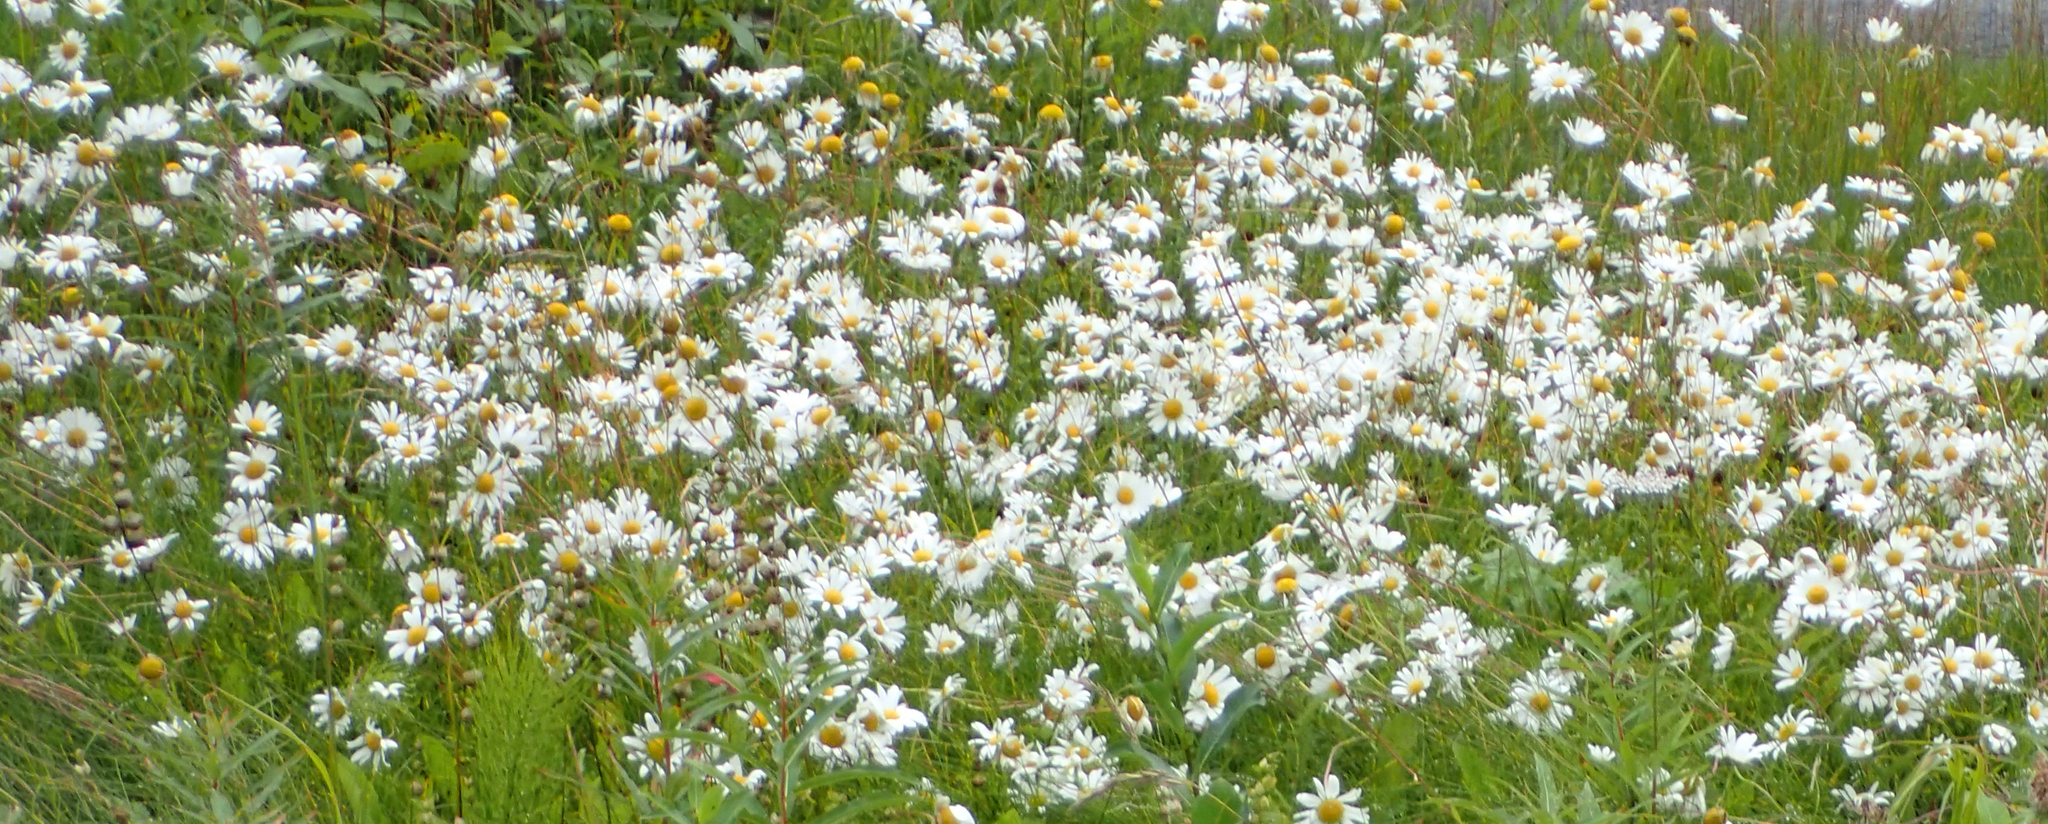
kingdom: Plantae
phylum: Tracheophyta
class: Magnoliopsida
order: Asterales
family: Asteraceae
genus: Leucanthemum
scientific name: Leucanthemum vulgare
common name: Oxeye daisy
